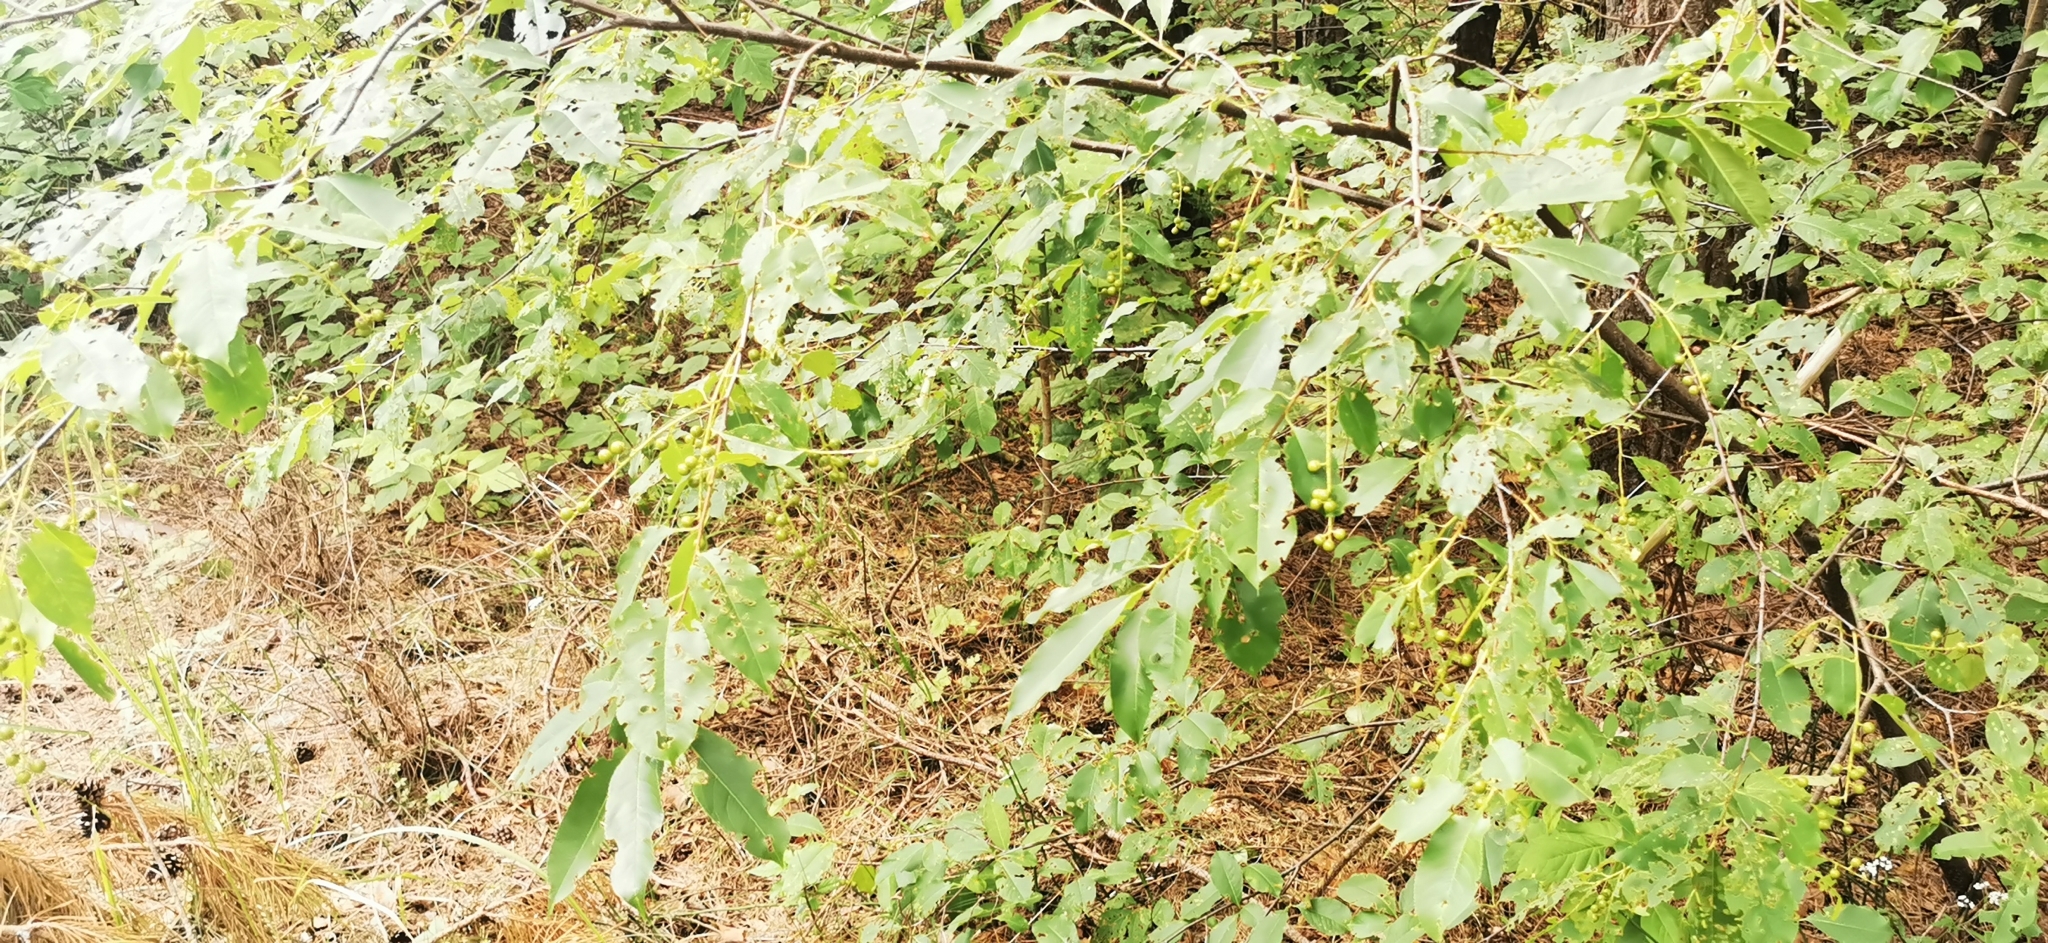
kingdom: Plantae
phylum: Tracheophyta
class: Magnoliopsida
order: Rosales
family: Rosaceae
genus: Prunus
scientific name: Prunus serotina
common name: Black cherry
